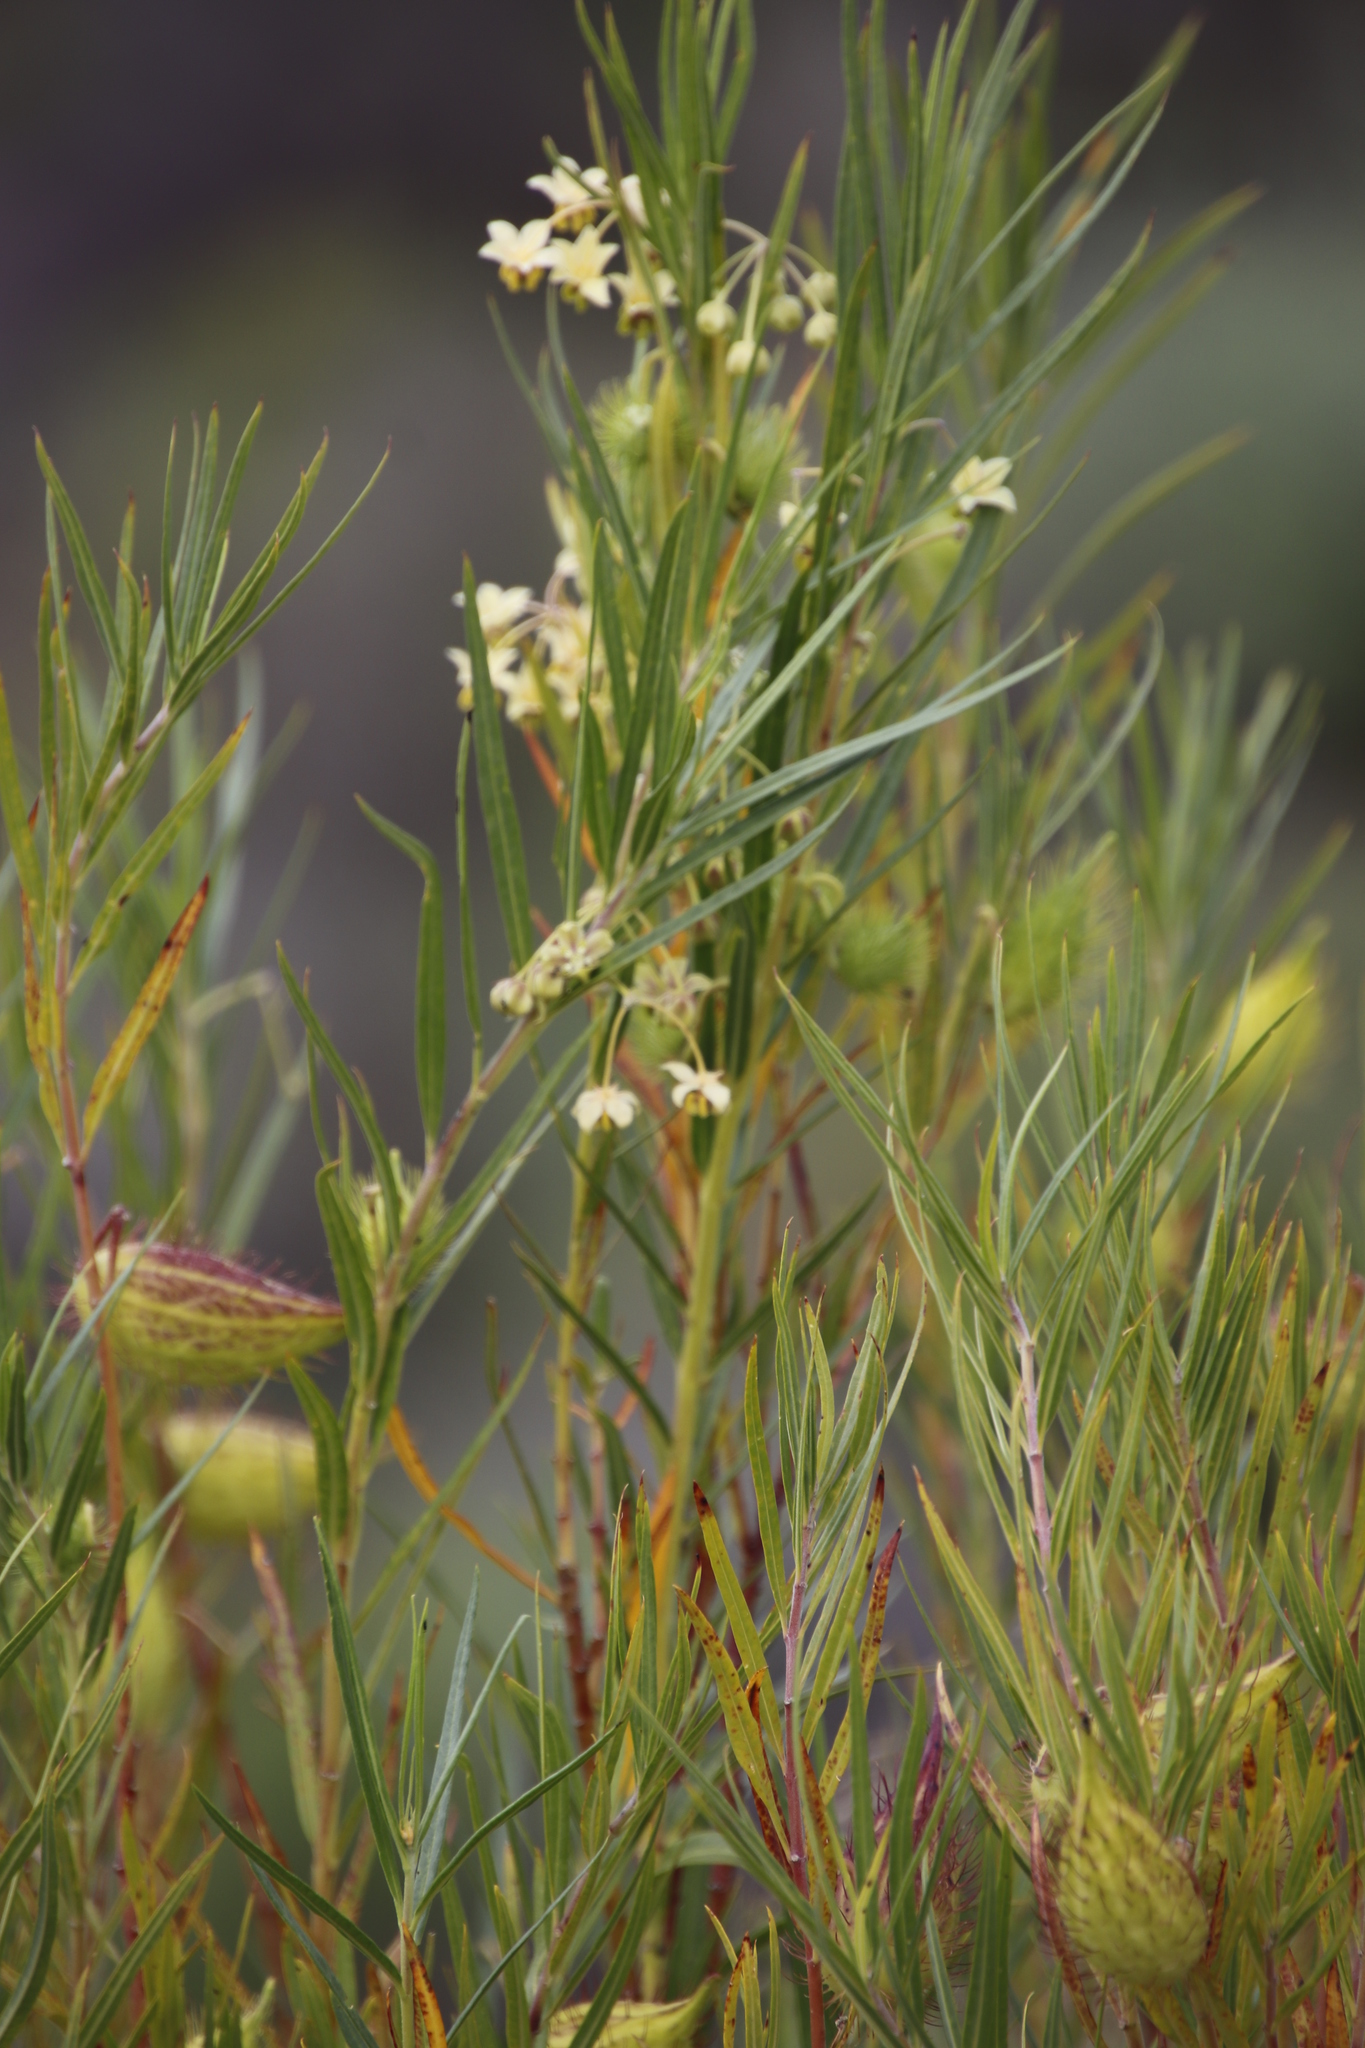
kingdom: Plantae
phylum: Tracheophyta
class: Magnoliopsida
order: Gentianales
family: Apocynaceae
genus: Gomphocarpus
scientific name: Gomphocarpus fruticosus
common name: Milkweed
